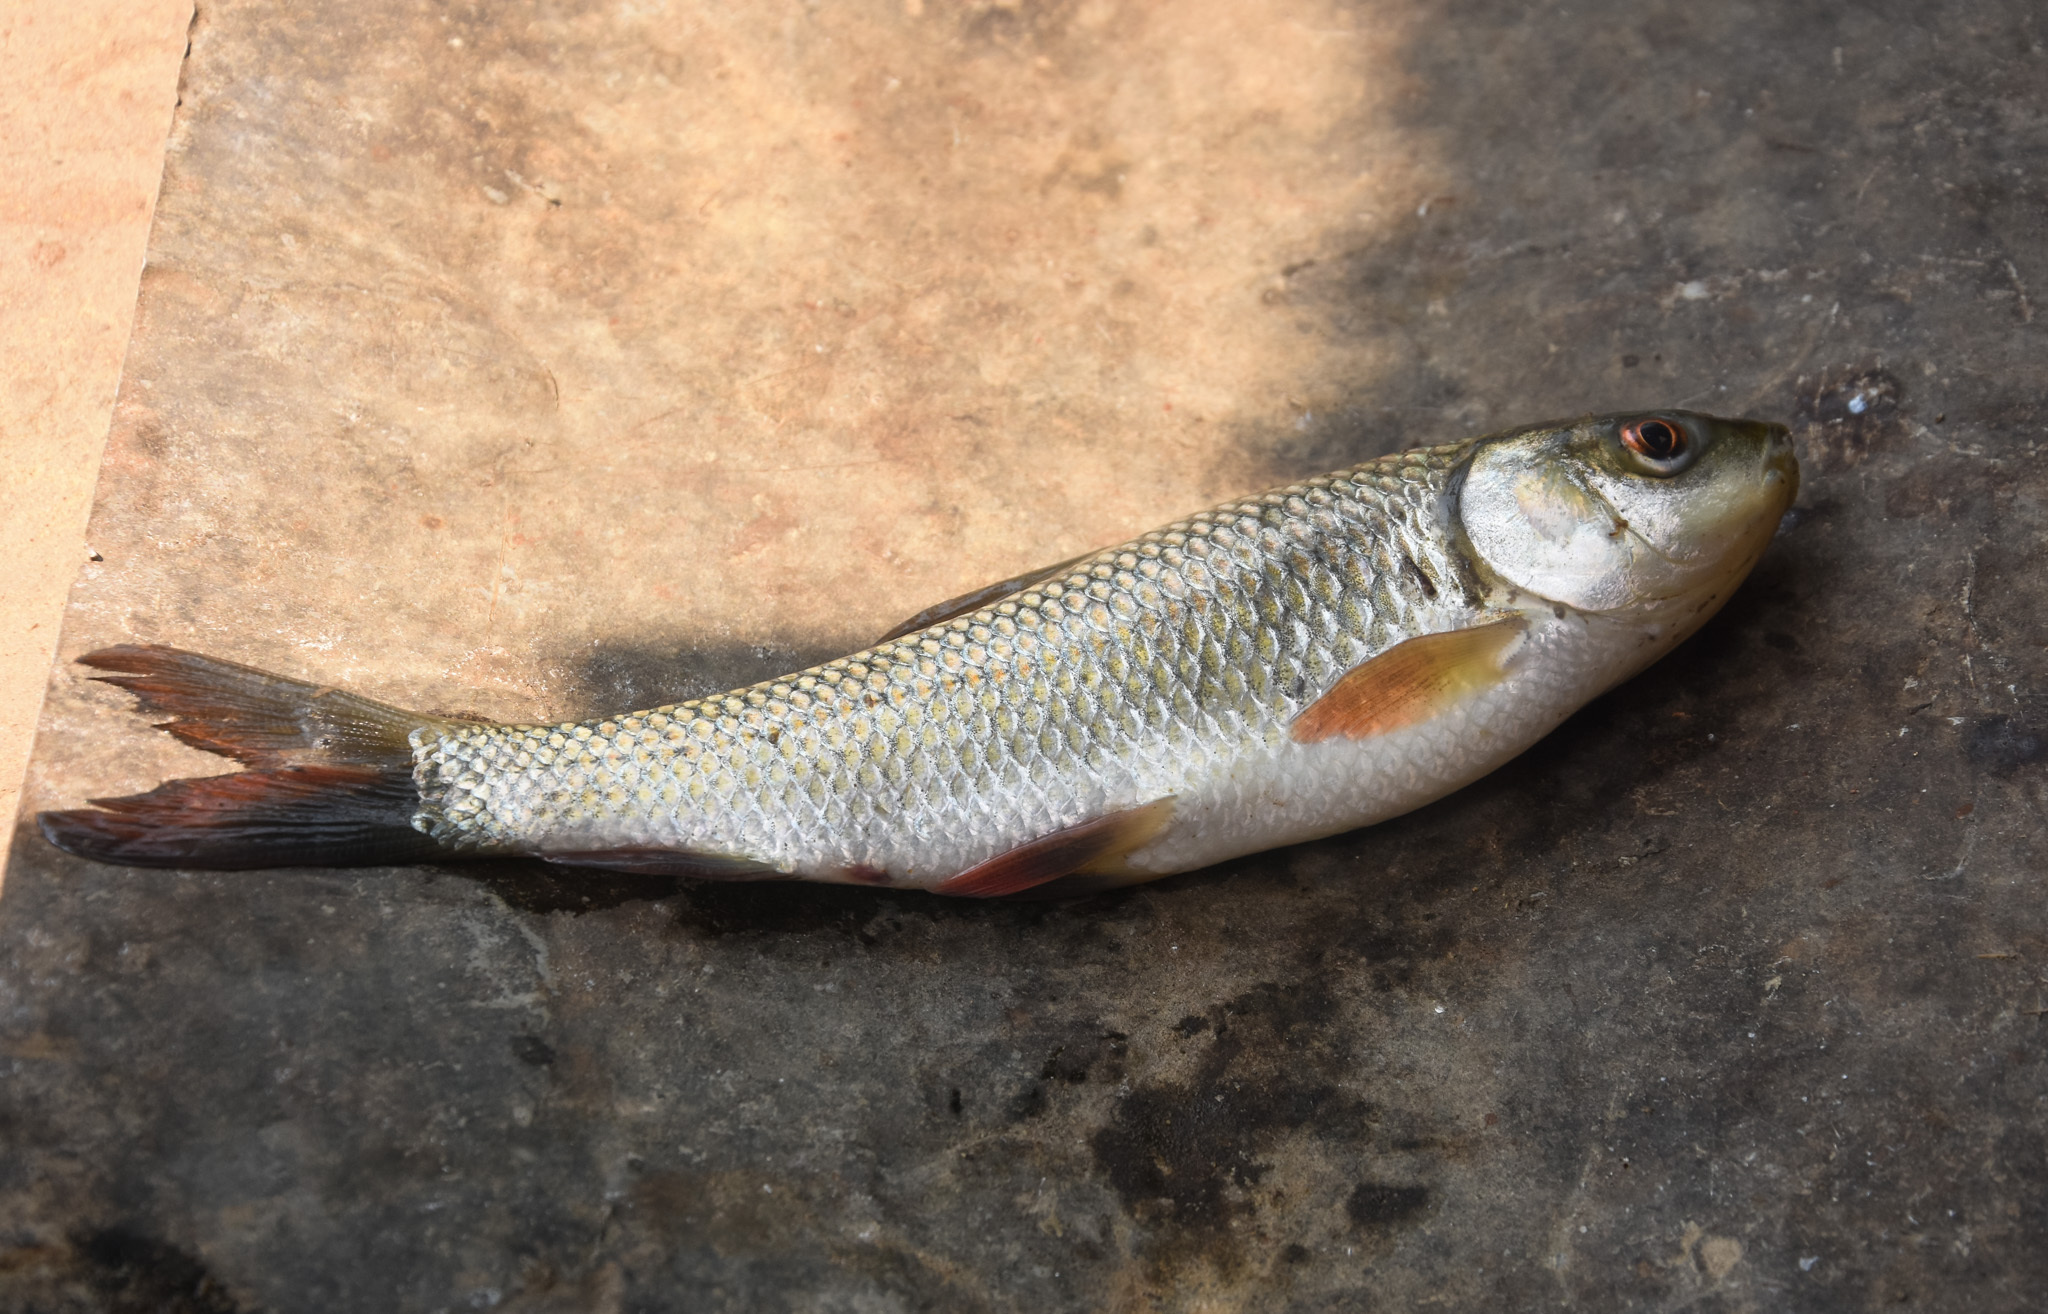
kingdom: Animalia
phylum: Chordata
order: Cypriniformes
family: Cyprinidae
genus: Labeo
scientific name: Labeo rohita
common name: Rohu
